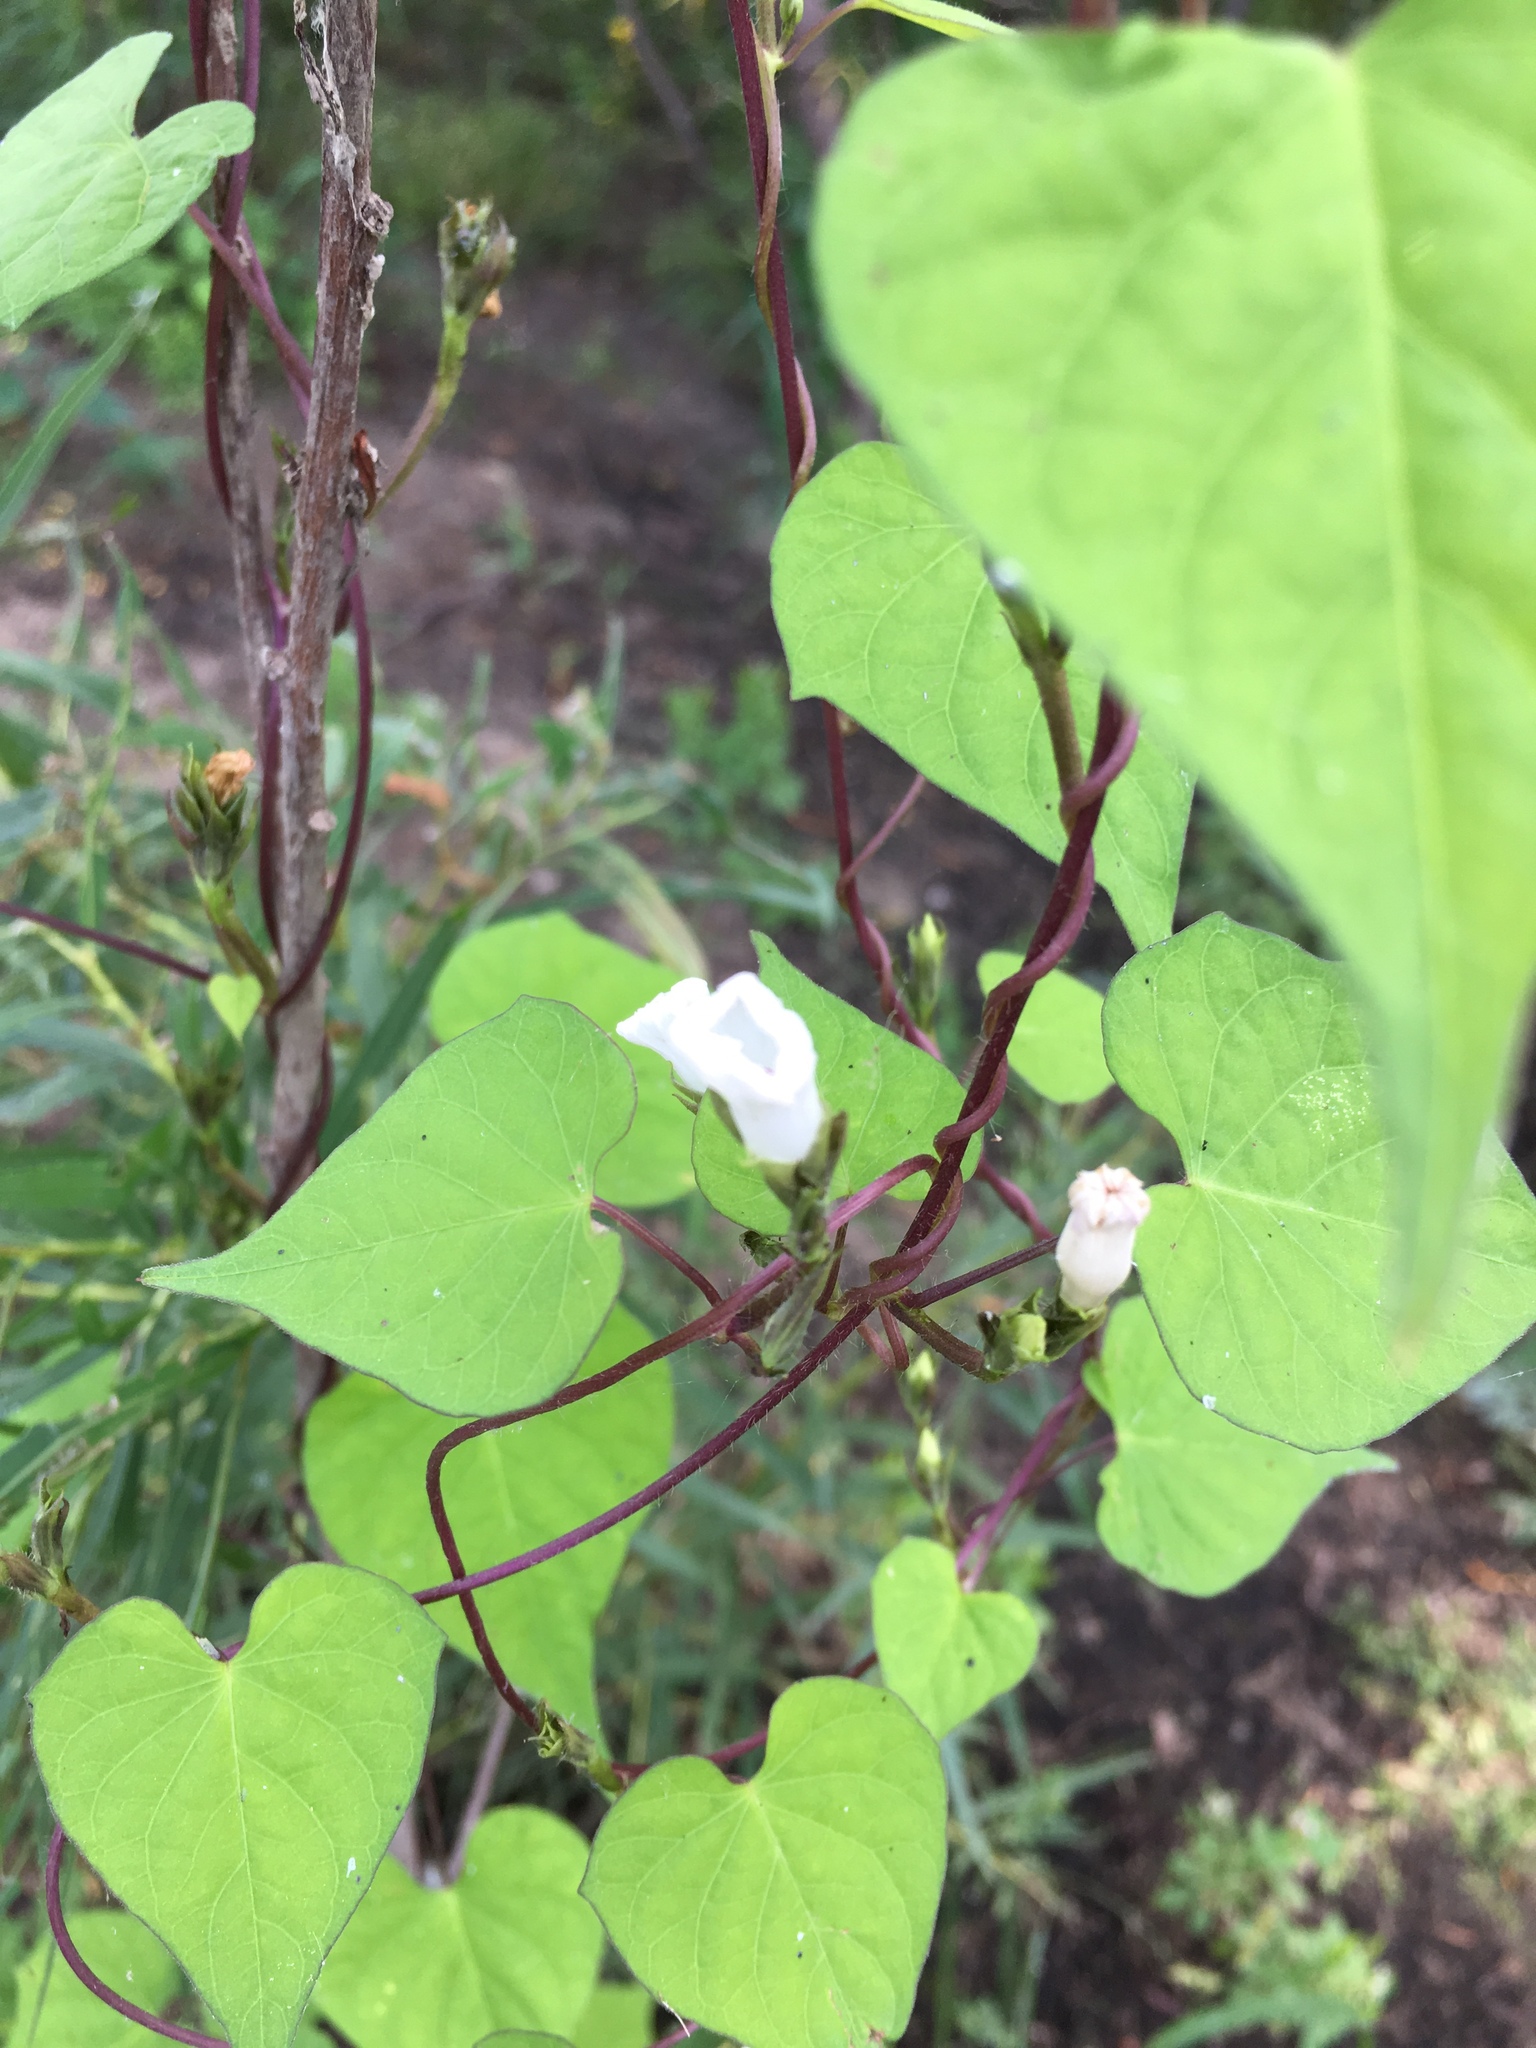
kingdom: Plantae
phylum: Tracheophyta
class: Magnoliopsida
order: Solanales
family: Convolvulaceae
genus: Ipomoea
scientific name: Ipomoea lacunosa
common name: White morning-glory
